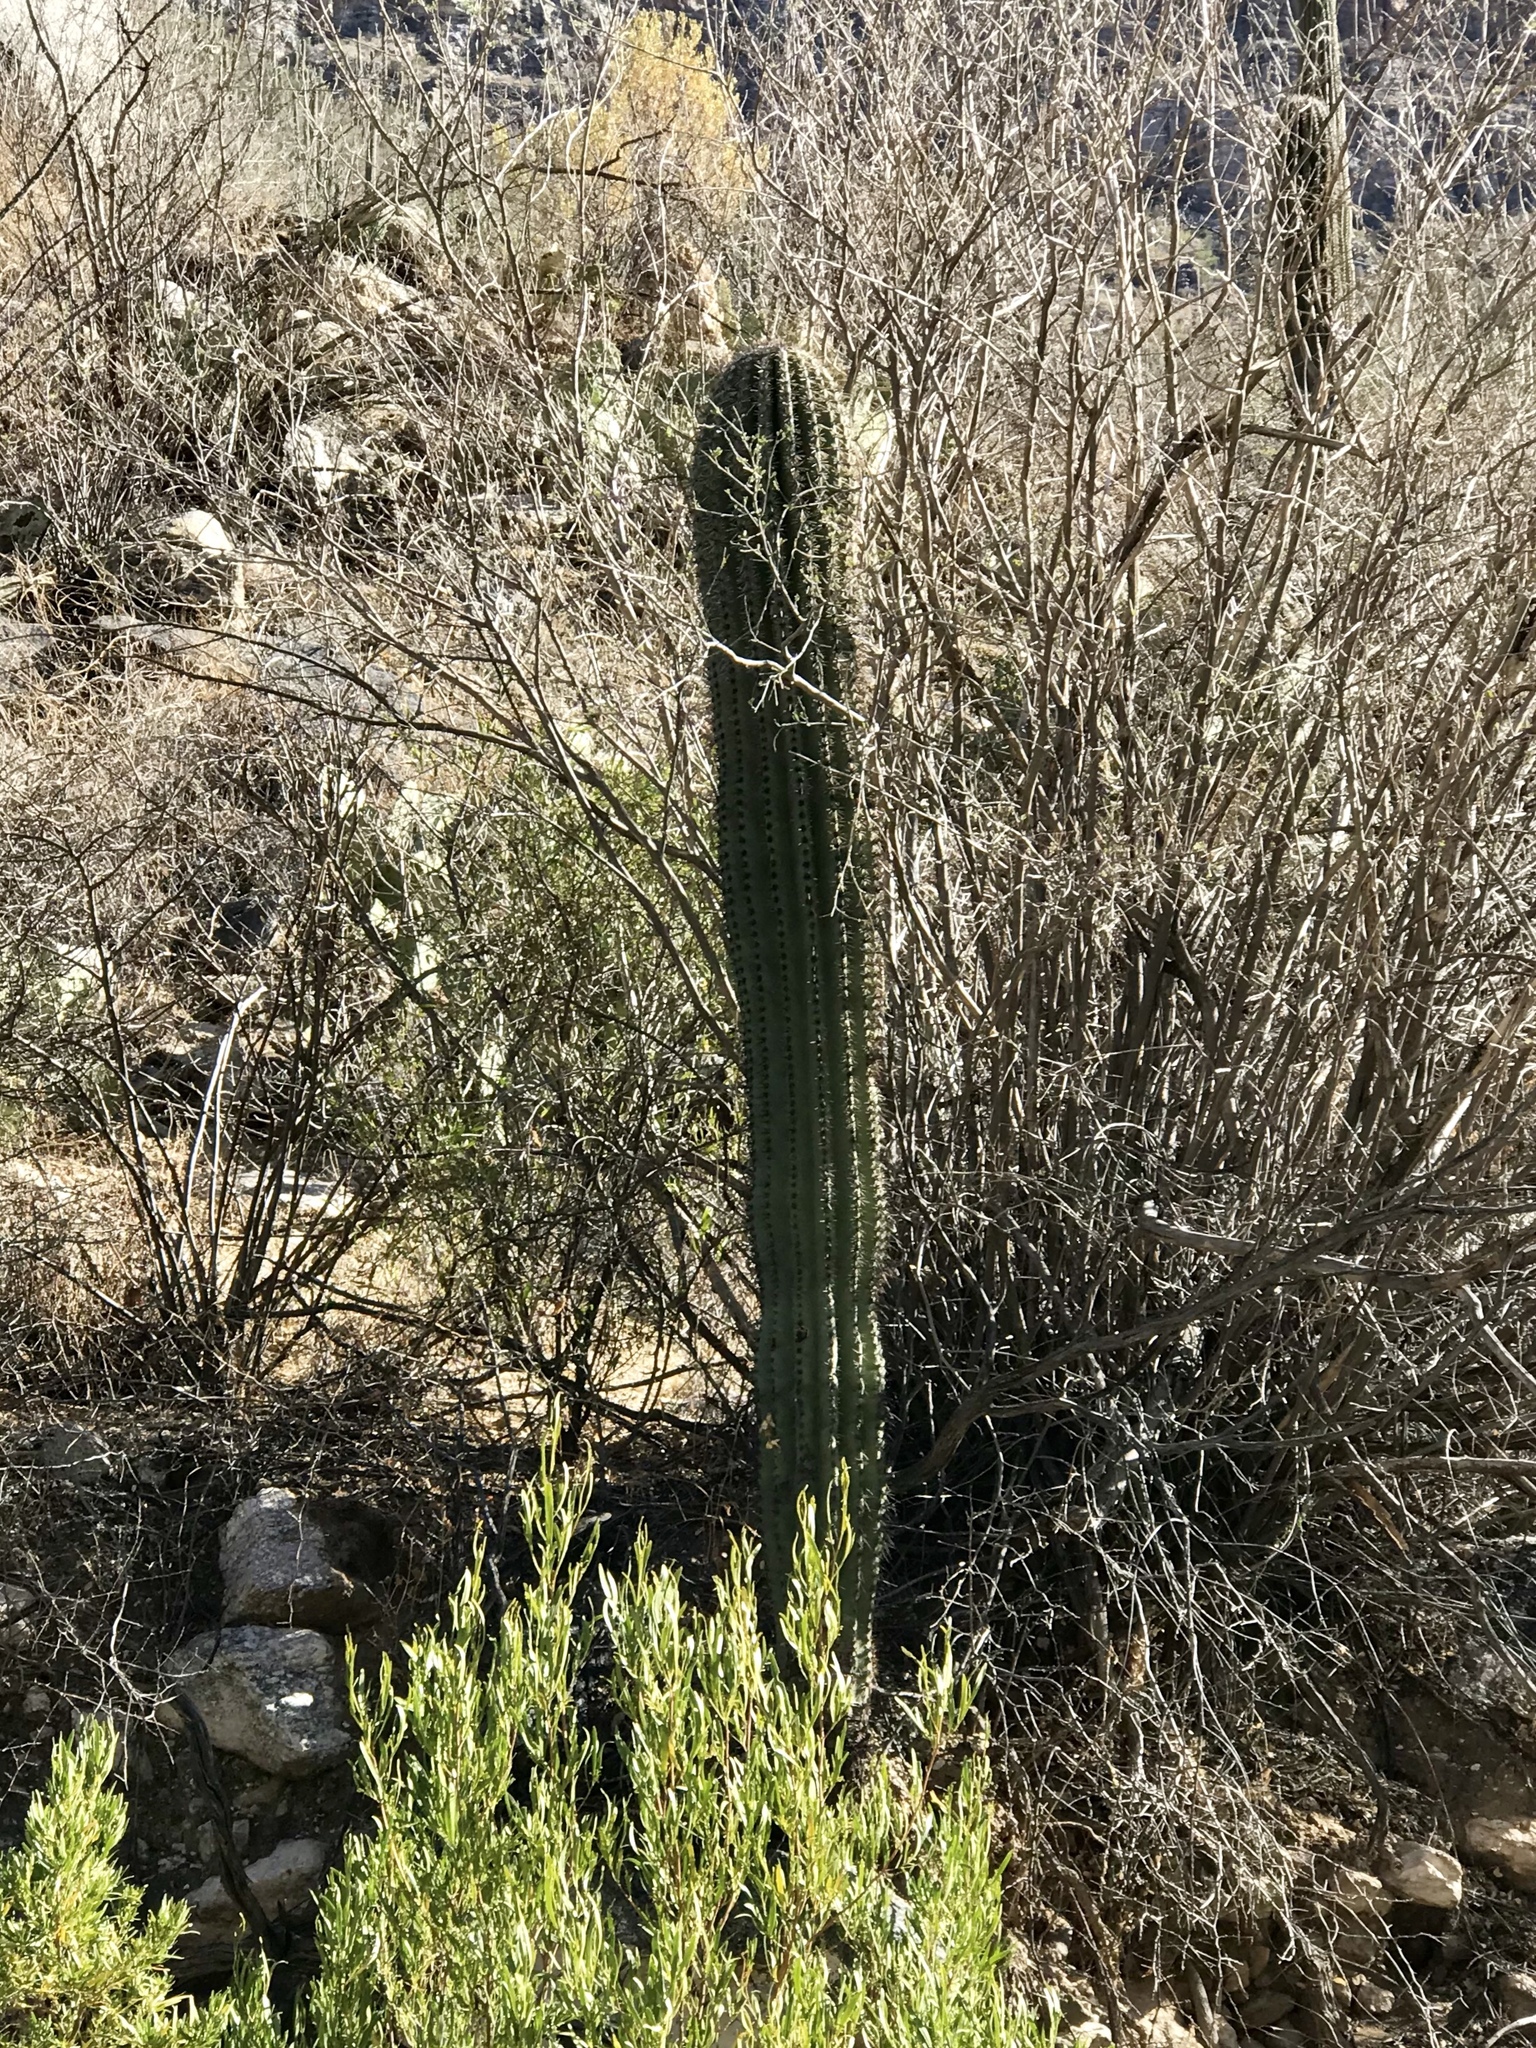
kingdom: Plantae
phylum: Tracheophyta
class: Magnoliopsida
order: Caryophyllales
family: Cactaceae
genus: Carnegiea
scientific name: Carnegiea gigantea
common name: Saguaro
